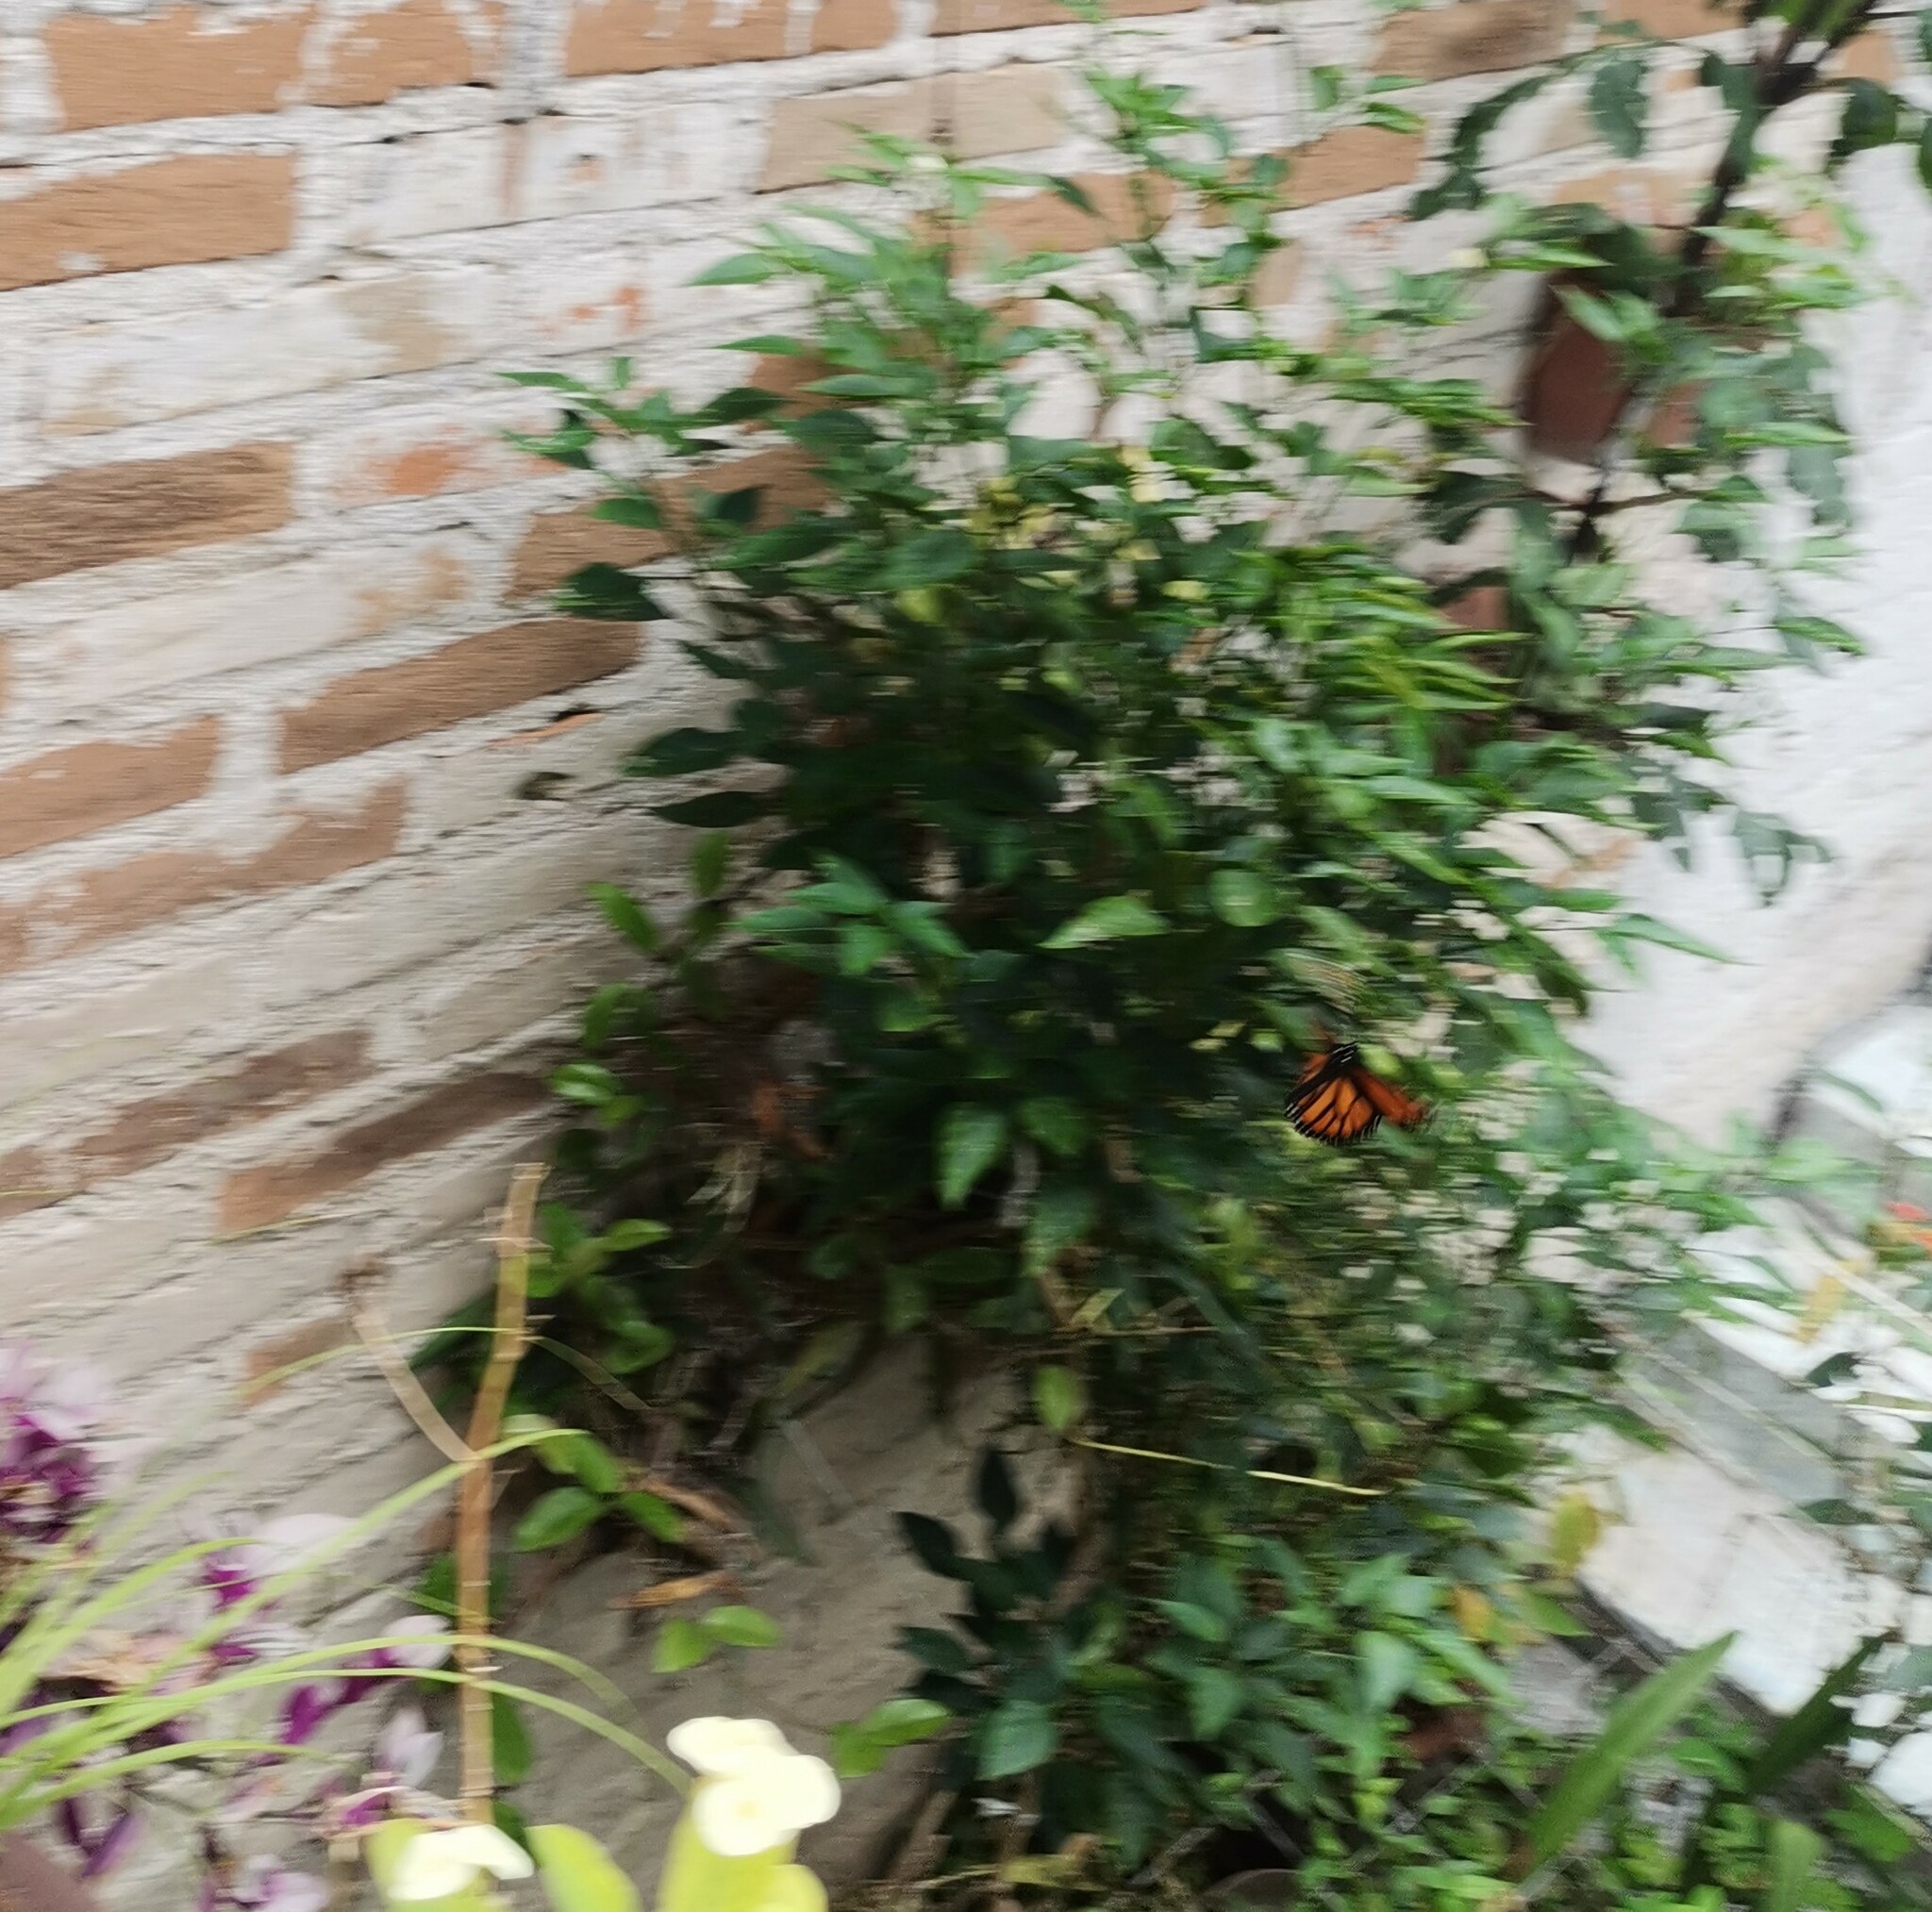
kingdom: Animalia
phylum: Arthropoda
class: Insecta
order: Lepidoptera
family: Nymphalidae
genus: Danaus
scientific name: Danaus plexippus
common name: Monarch
